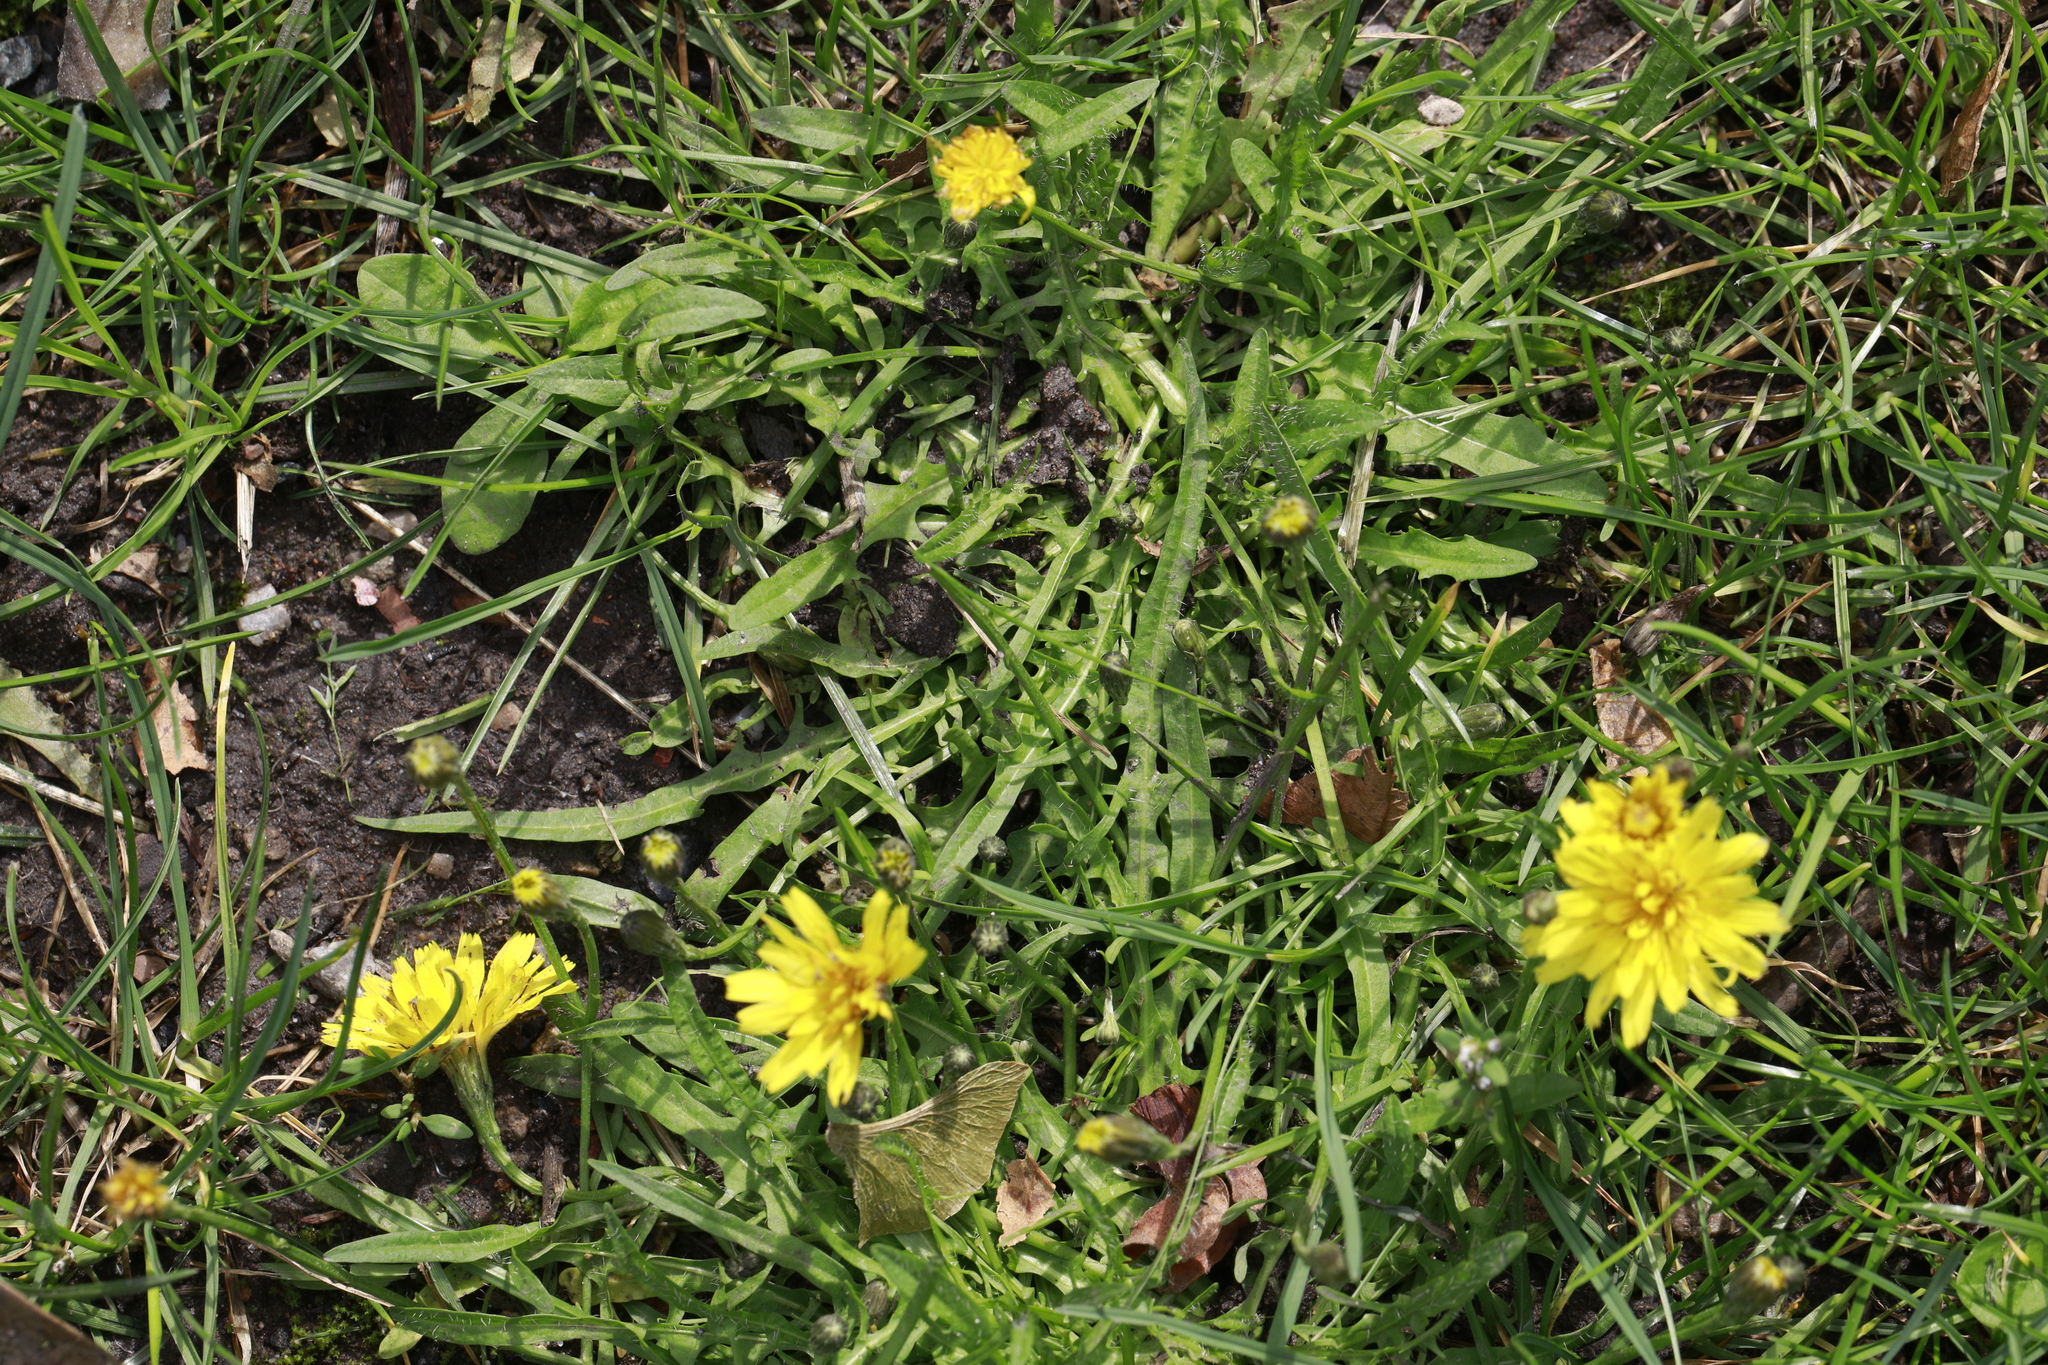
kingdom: Plantae
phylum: Tracheophyta
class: Magnoliopsida
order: Asterales
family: Asteraceae
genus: Scorzoneroides
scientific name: Scorzoneroides autumnalis
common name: Autumn hawkbit
